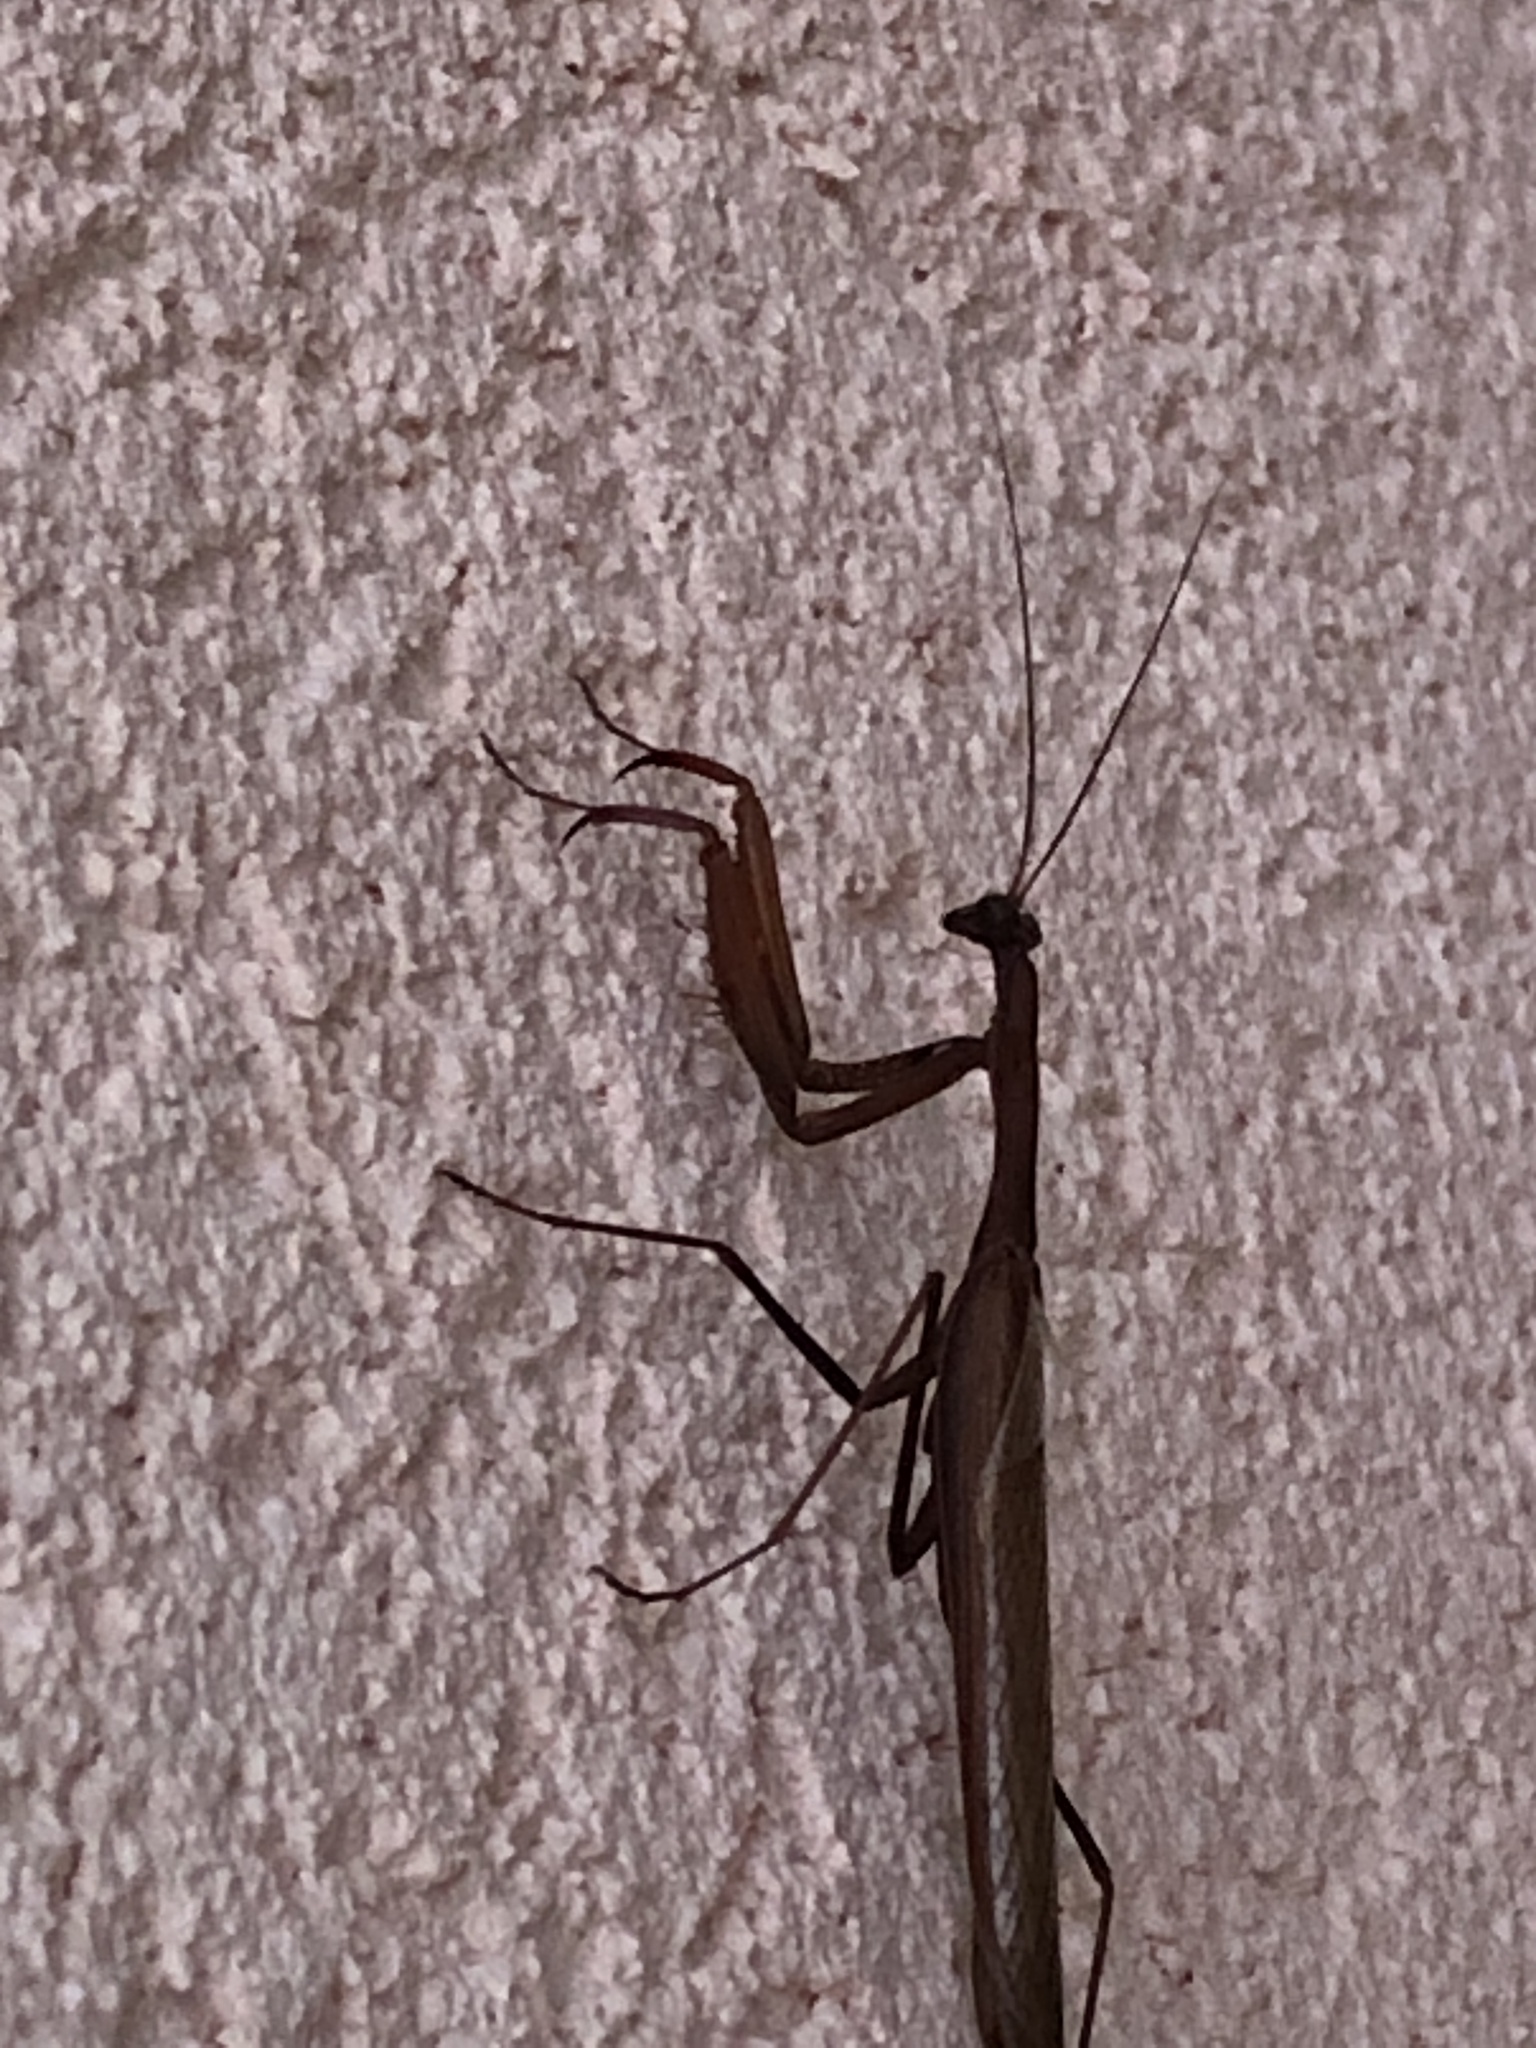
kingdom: Animalia
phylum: Arthropoda
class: Insecta
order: Mantodea
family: Mantidae
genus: Mantis
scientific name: Mantis religiosa
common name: Praying mantis
